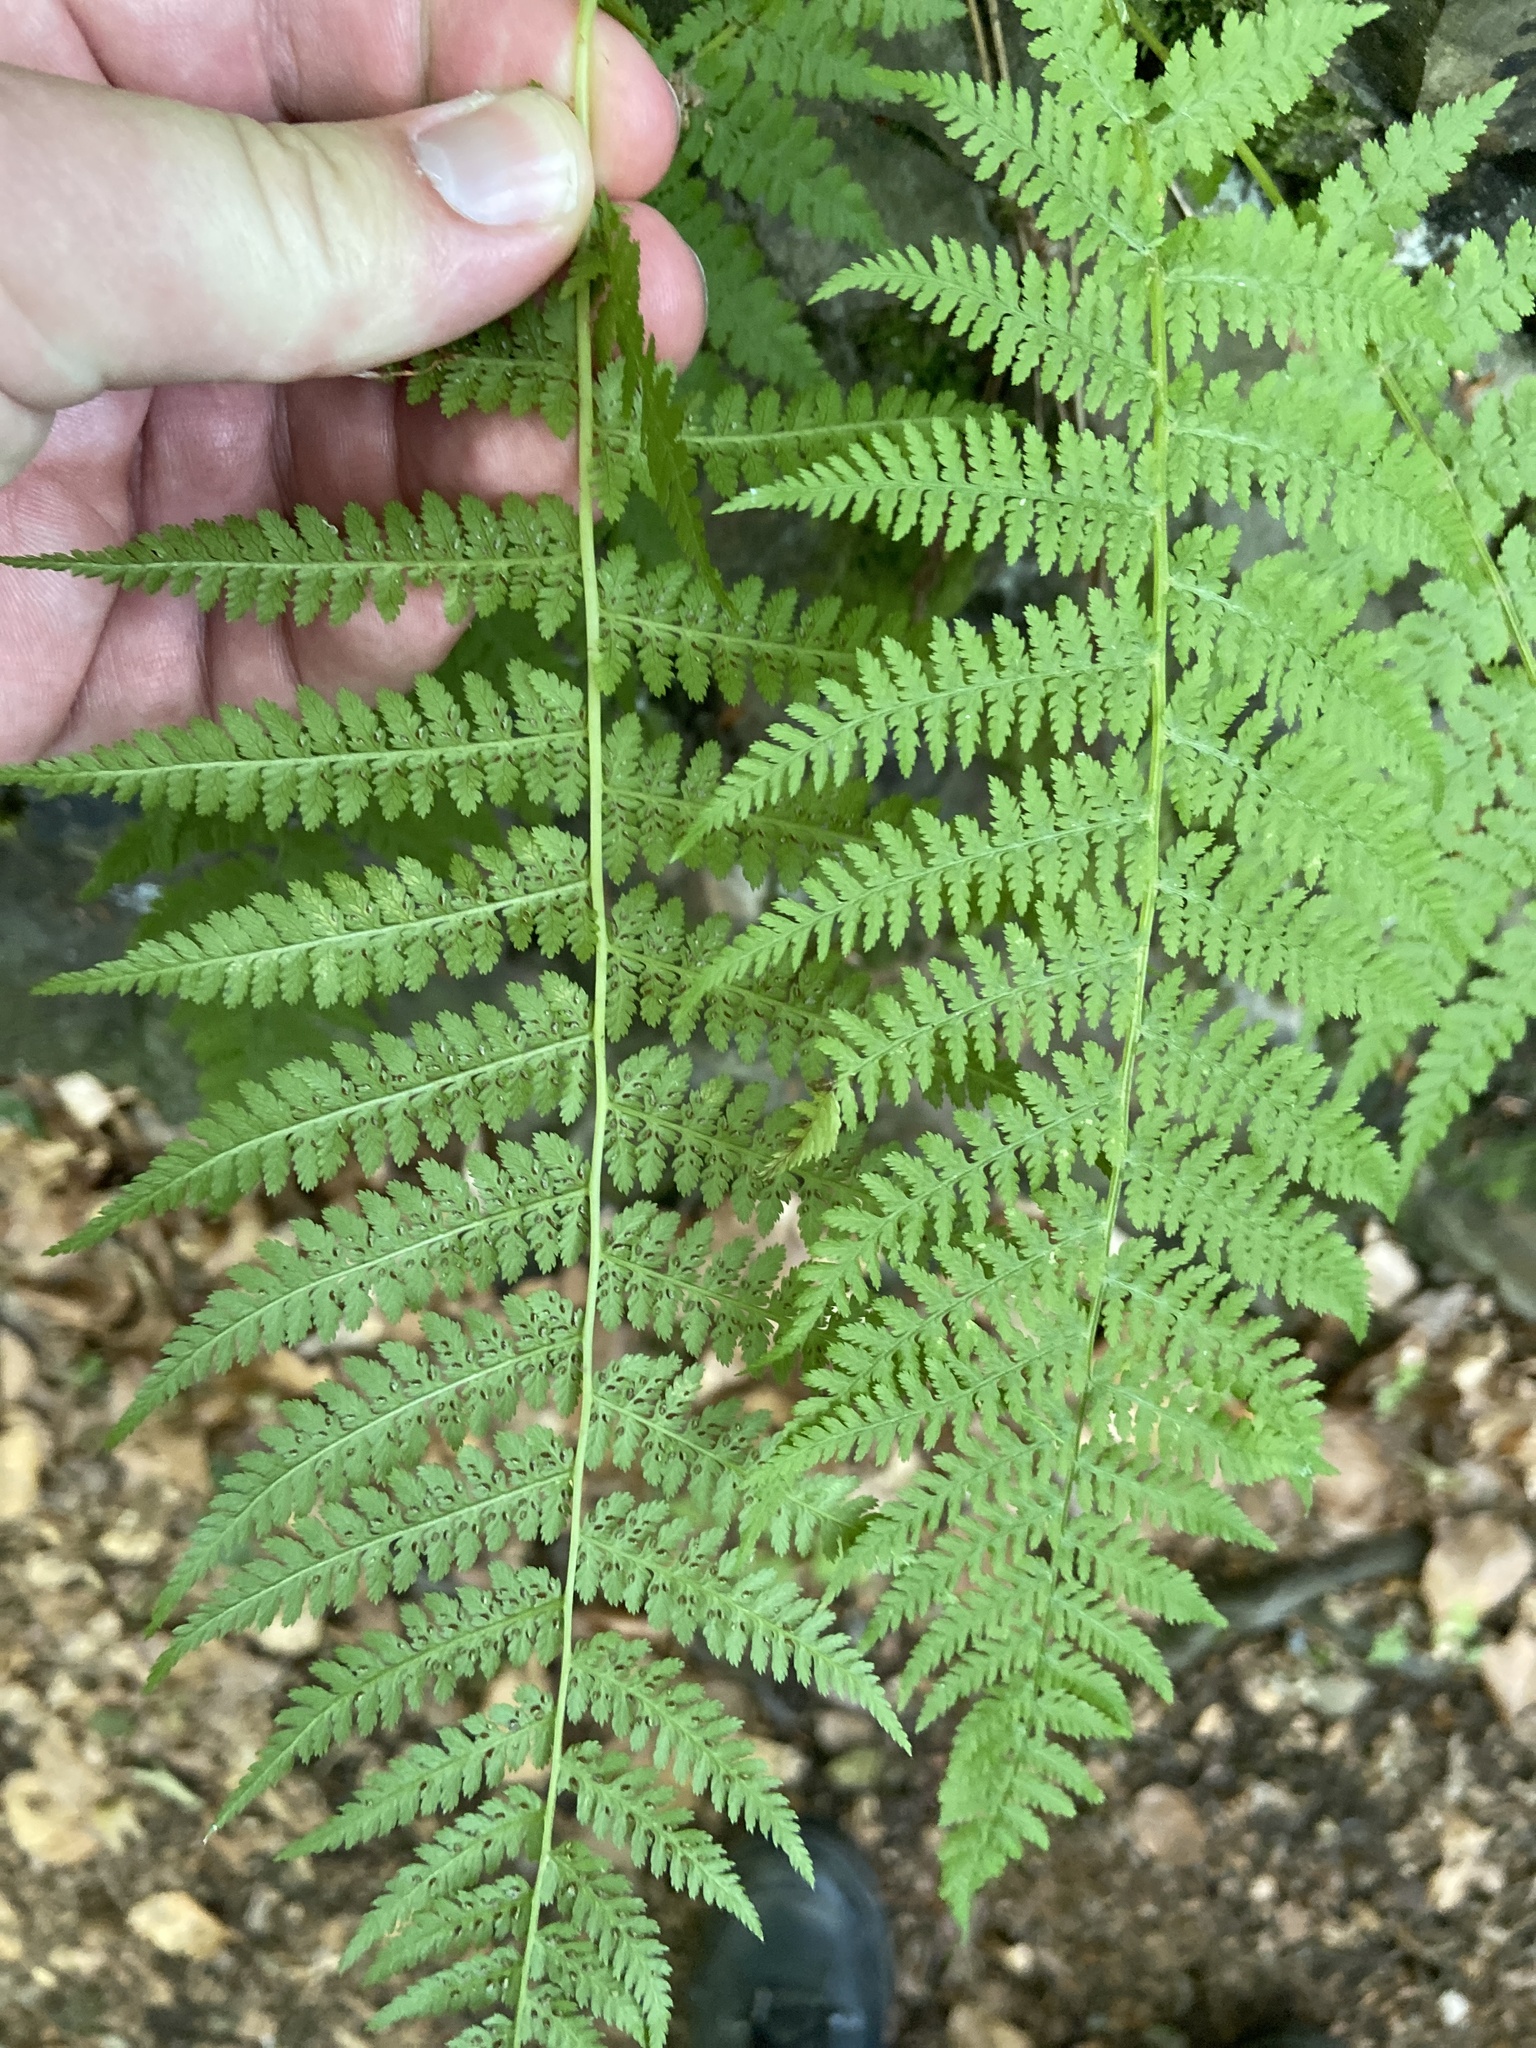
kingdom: Plantae
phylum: Tracheophyta
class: Polypodiopsida
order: Polypodiales
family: Athyriaceae
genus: Athyrium
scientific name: Athyrium filix-femina
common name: Lady fern
